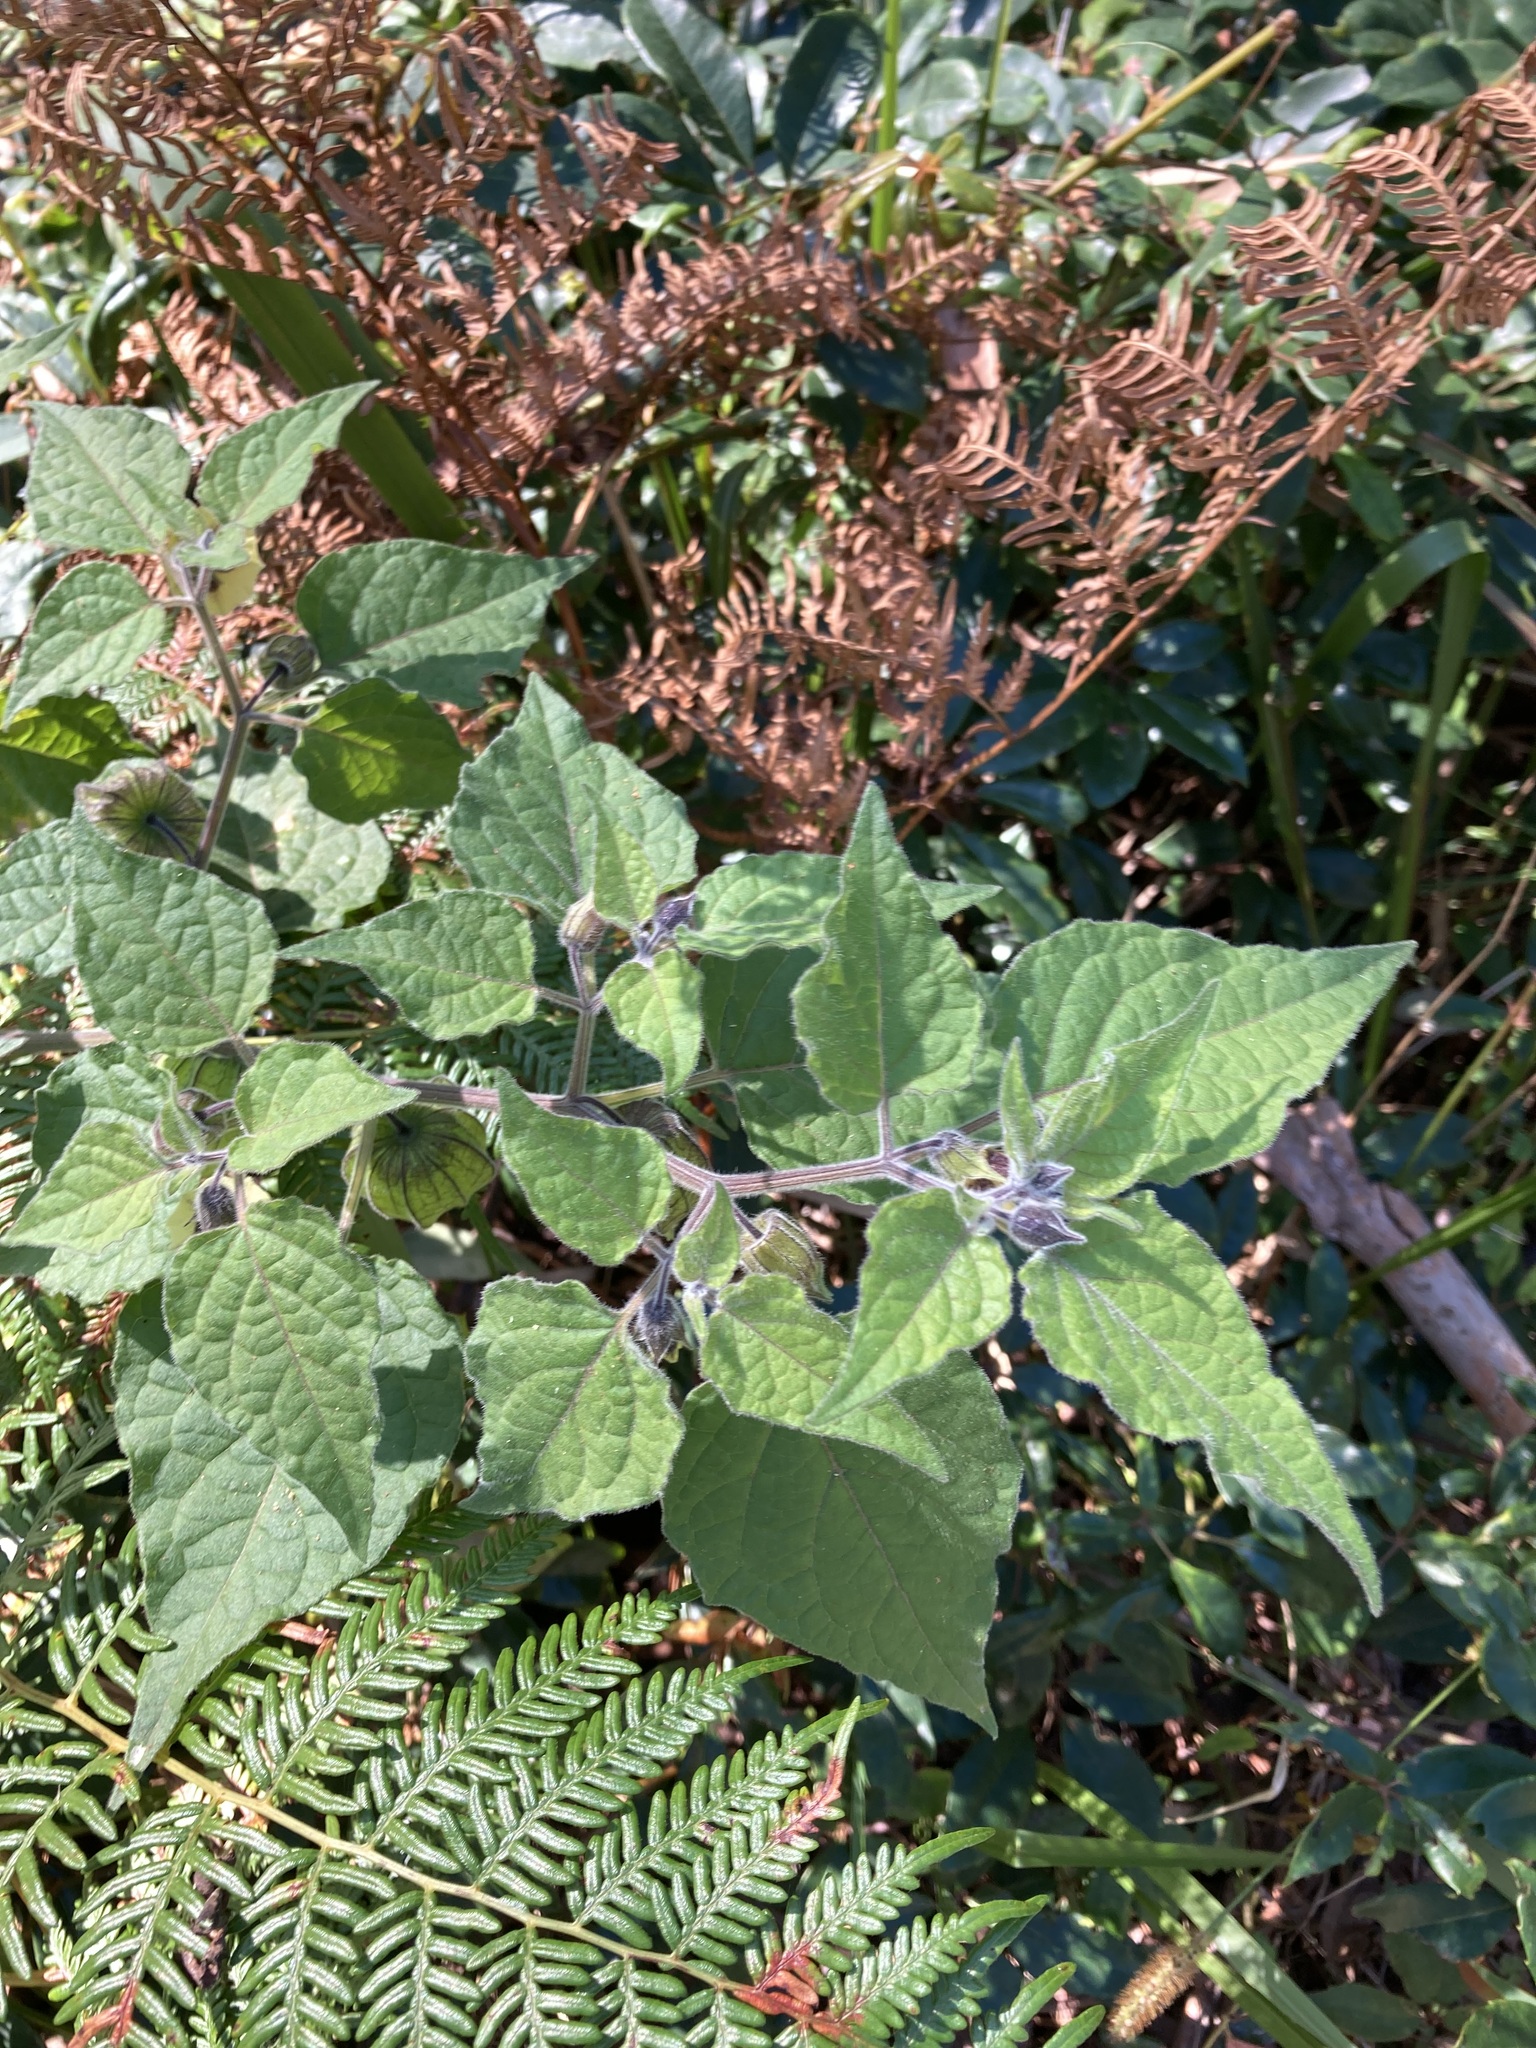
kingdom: Plantae
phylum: Tracheophyta
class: Magnoliopsida
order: Solanales
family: Solanaceae
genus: Physalis
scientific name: Physalis peruviana
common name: Cape-gooseberry
